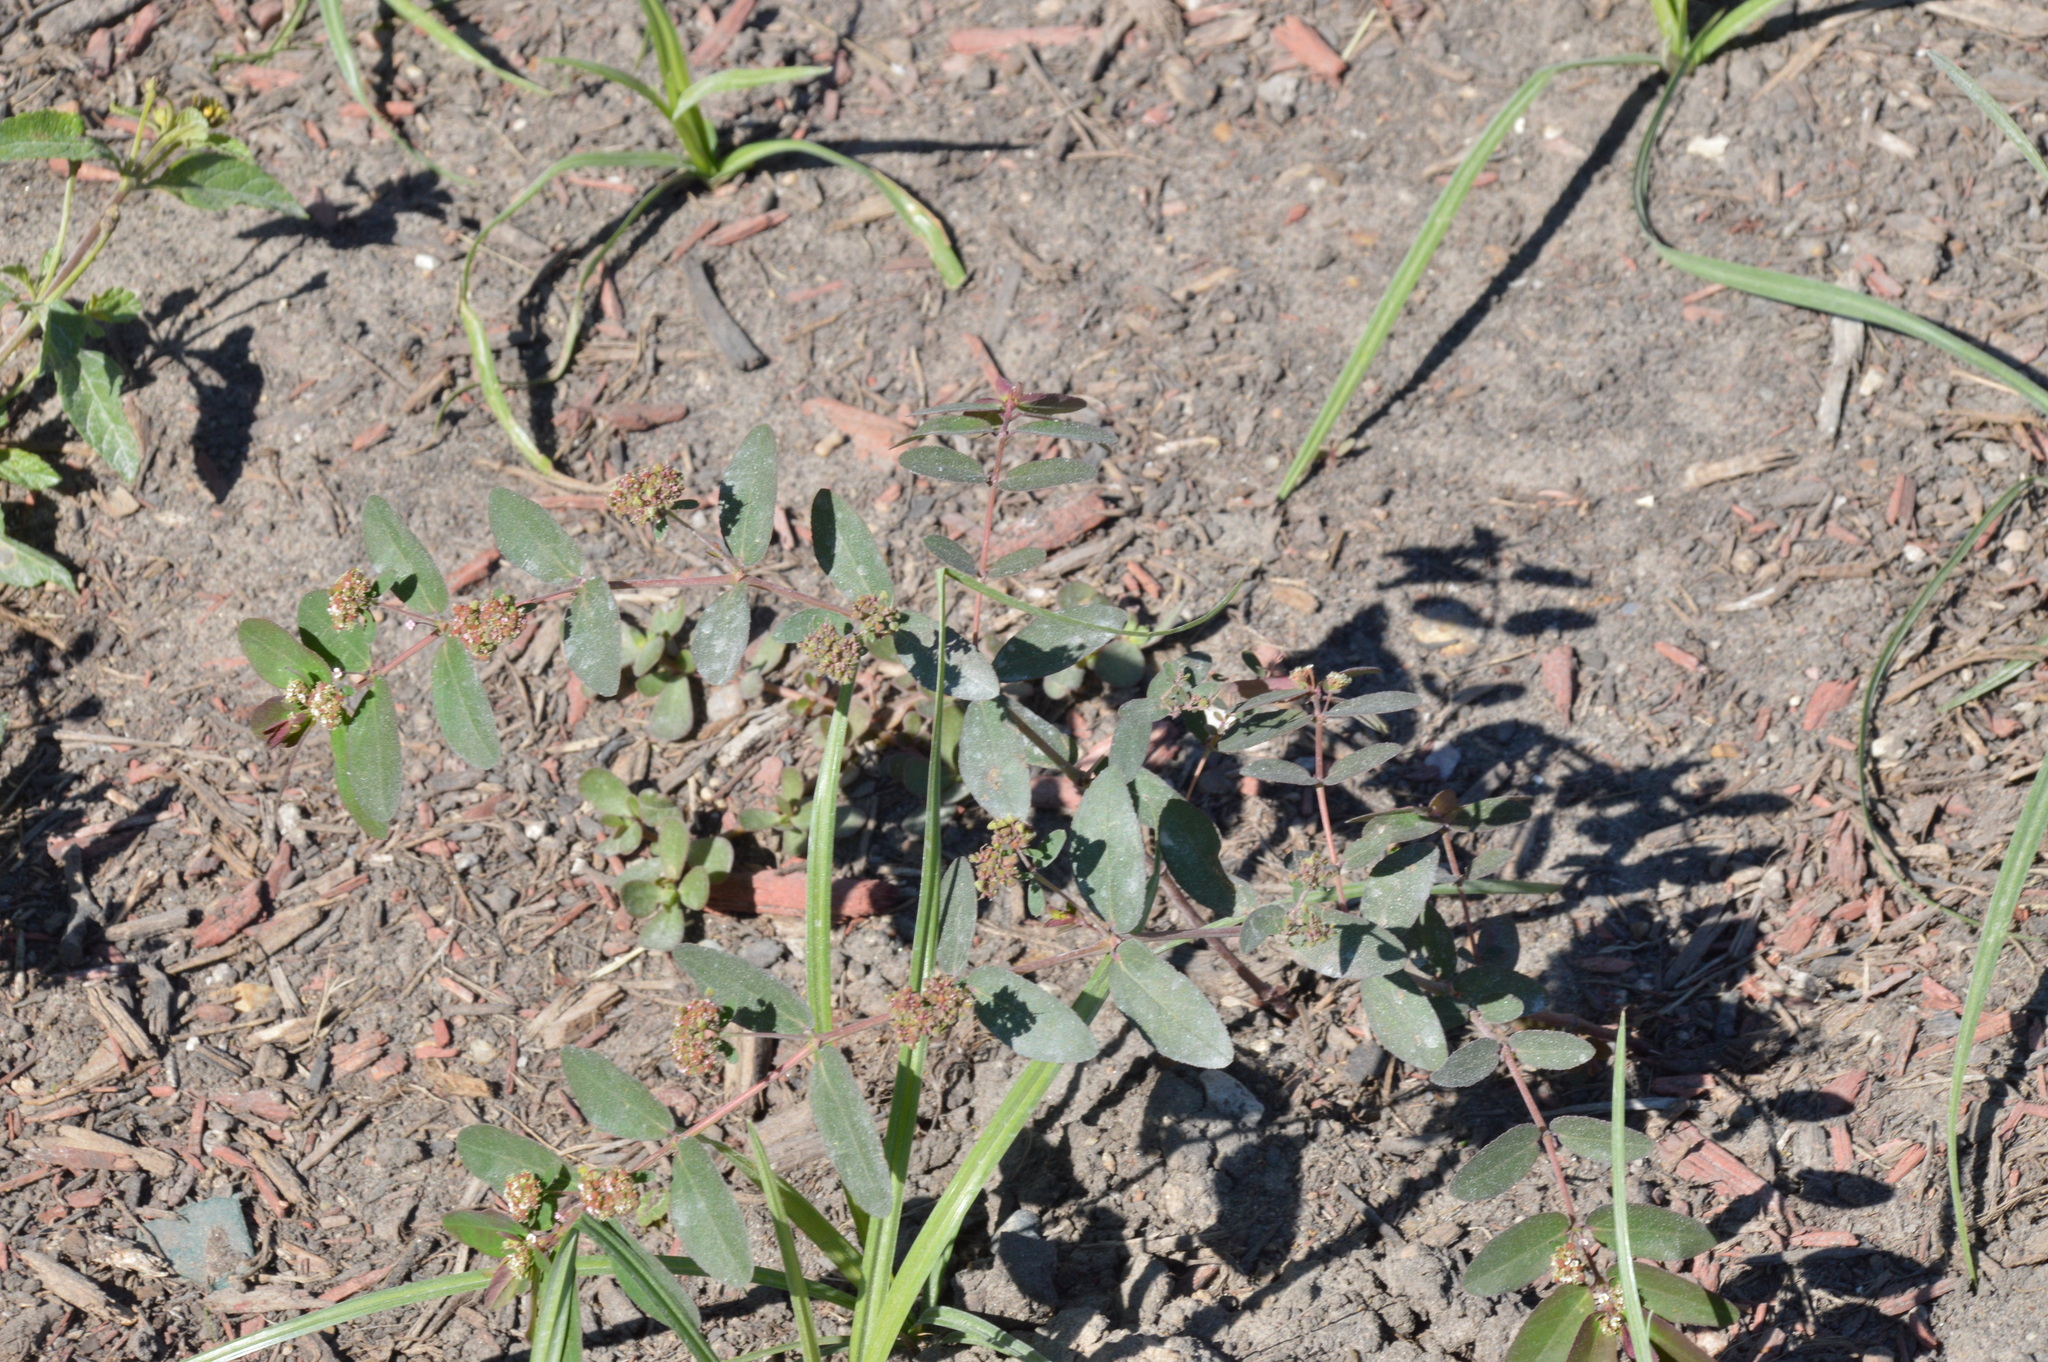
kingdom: Plantae
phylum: Tracheophyta
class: Magnoliopsida
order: Malpighiales
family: Euphorbiaceae
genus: Euphorbia
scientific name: Euphorbia hypericifolia
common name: Graceful sandmat
